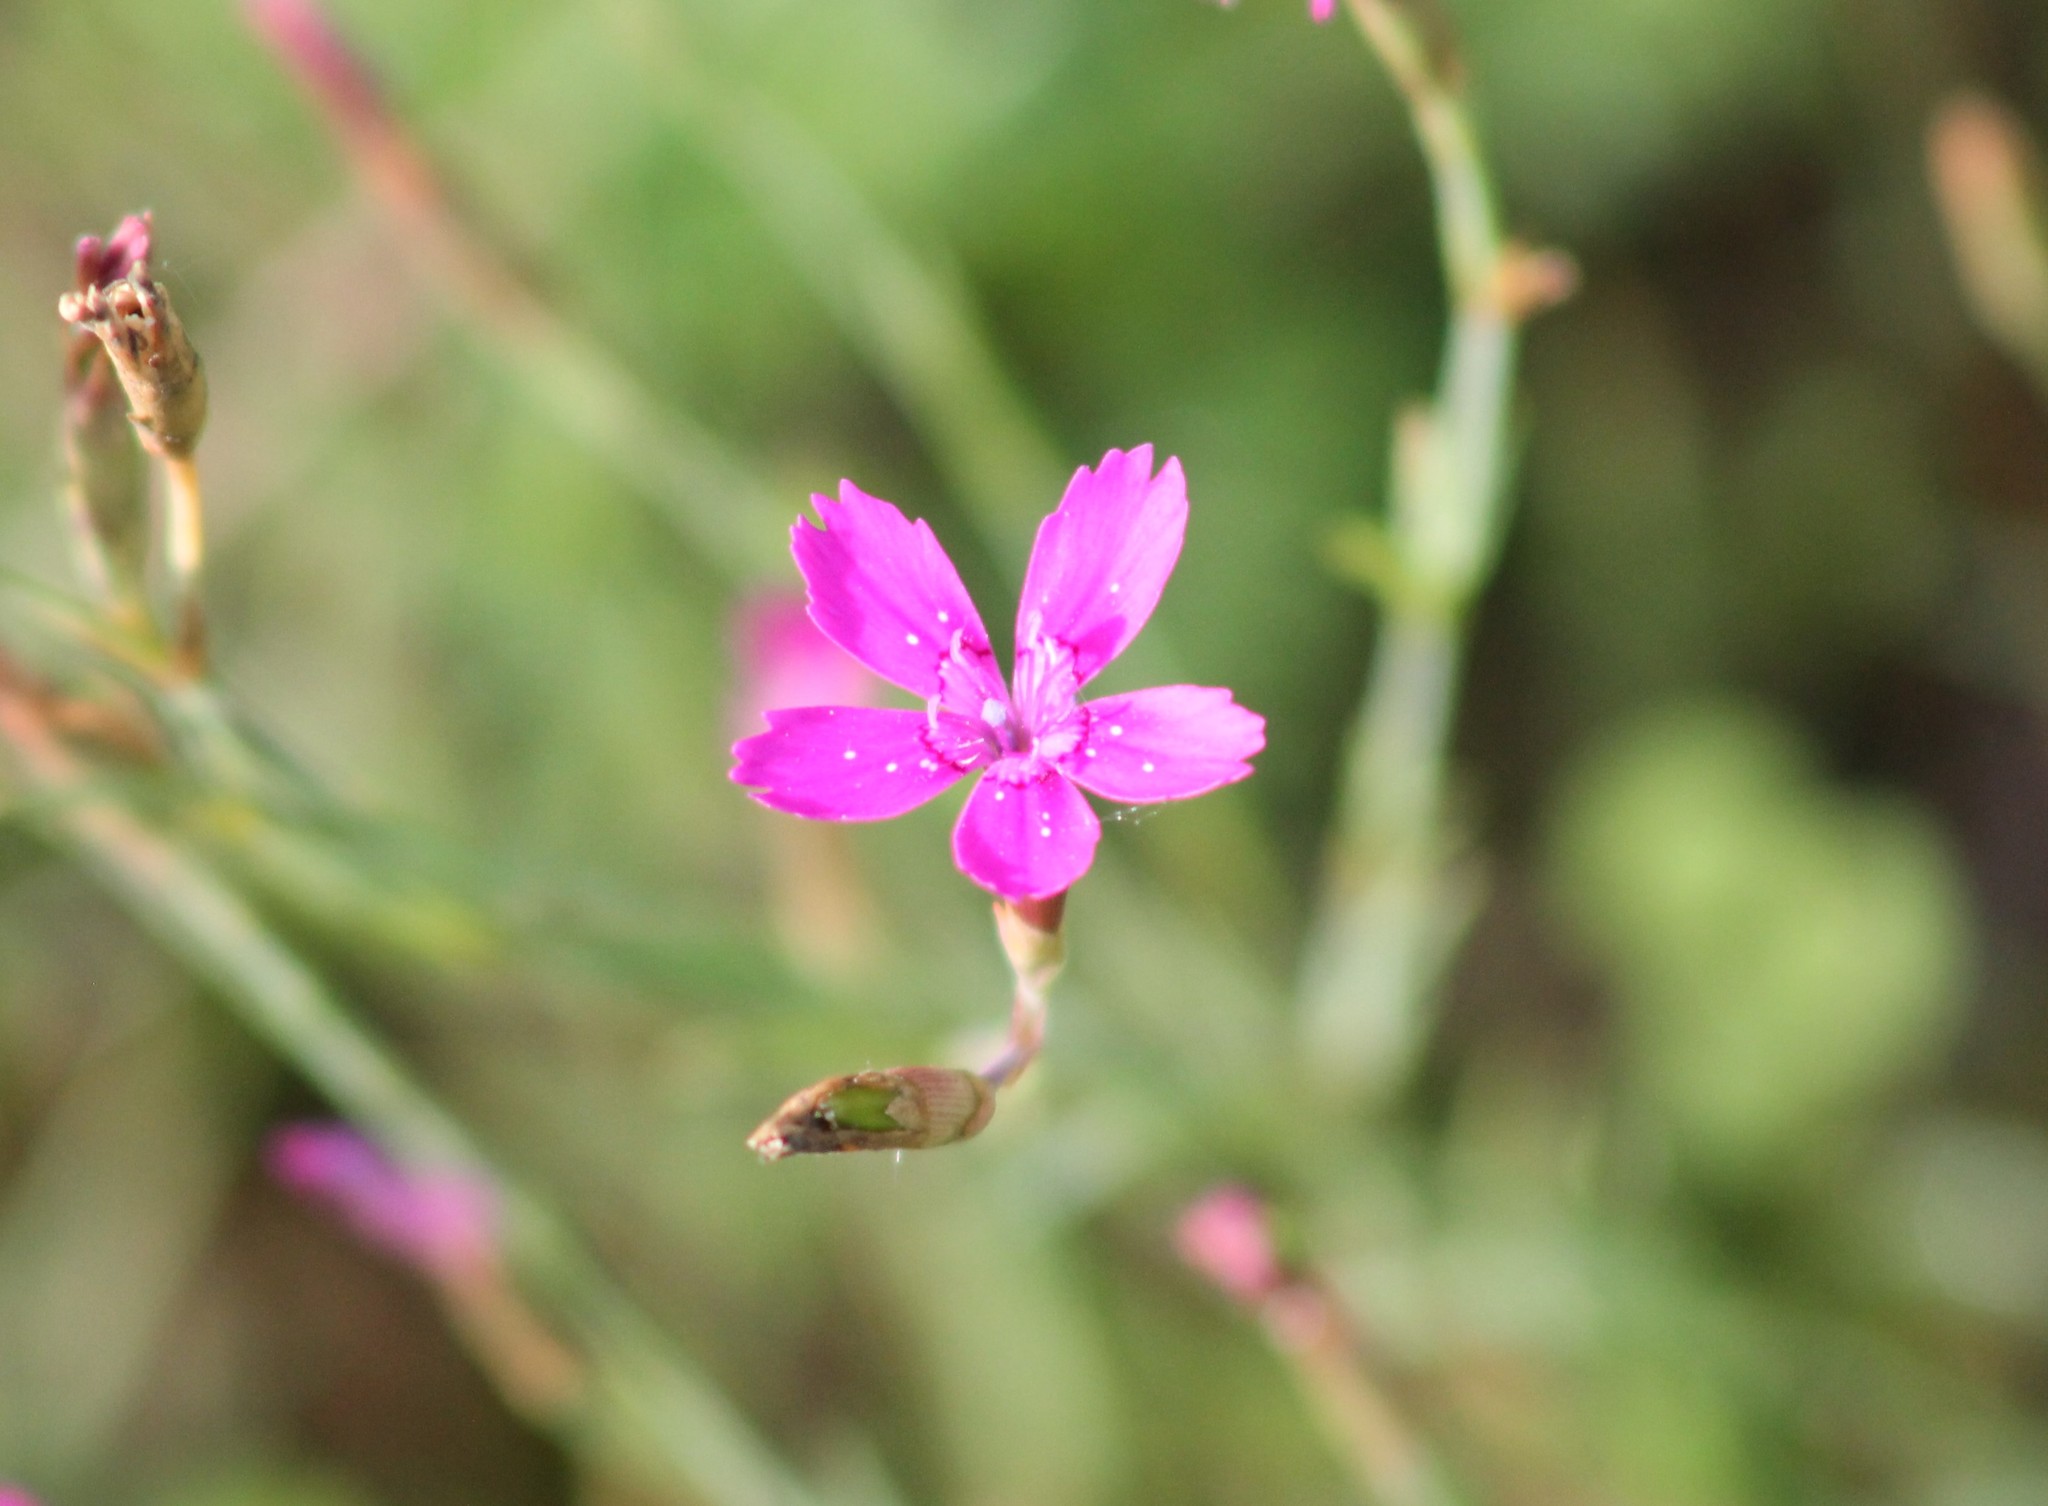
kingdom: Plantae
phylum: Tracheophyta
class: Magnoliopsida
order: Caryophyllales
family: Caryophyllaceae
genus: Dianthus
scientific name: Dianthus deltoides
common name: Maiden pink
